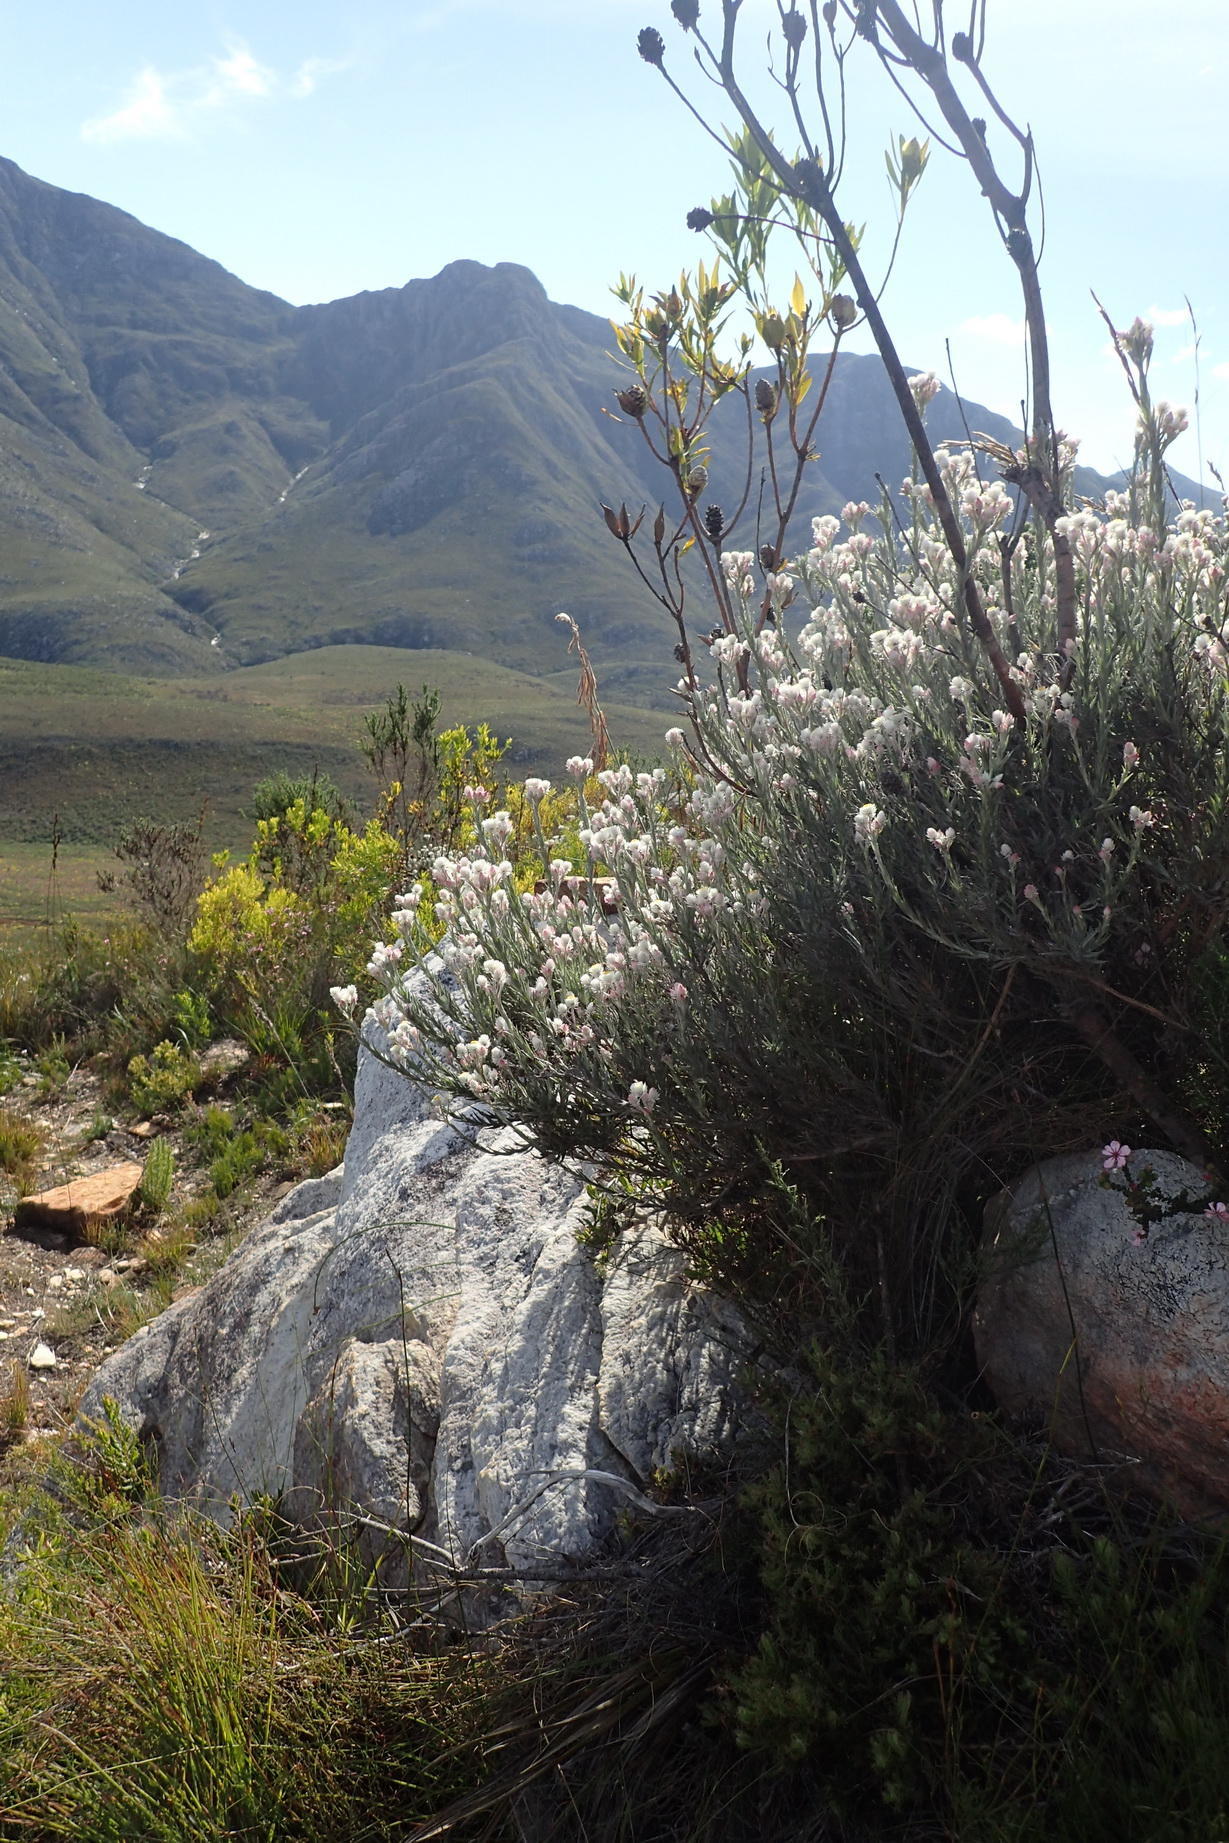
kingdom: Plantae
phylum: Tracheophyta
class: Magnoliopsida
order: Asterales
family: Asteraceae
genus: Achyranthemum
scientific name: Achyranthemum paniculatum
